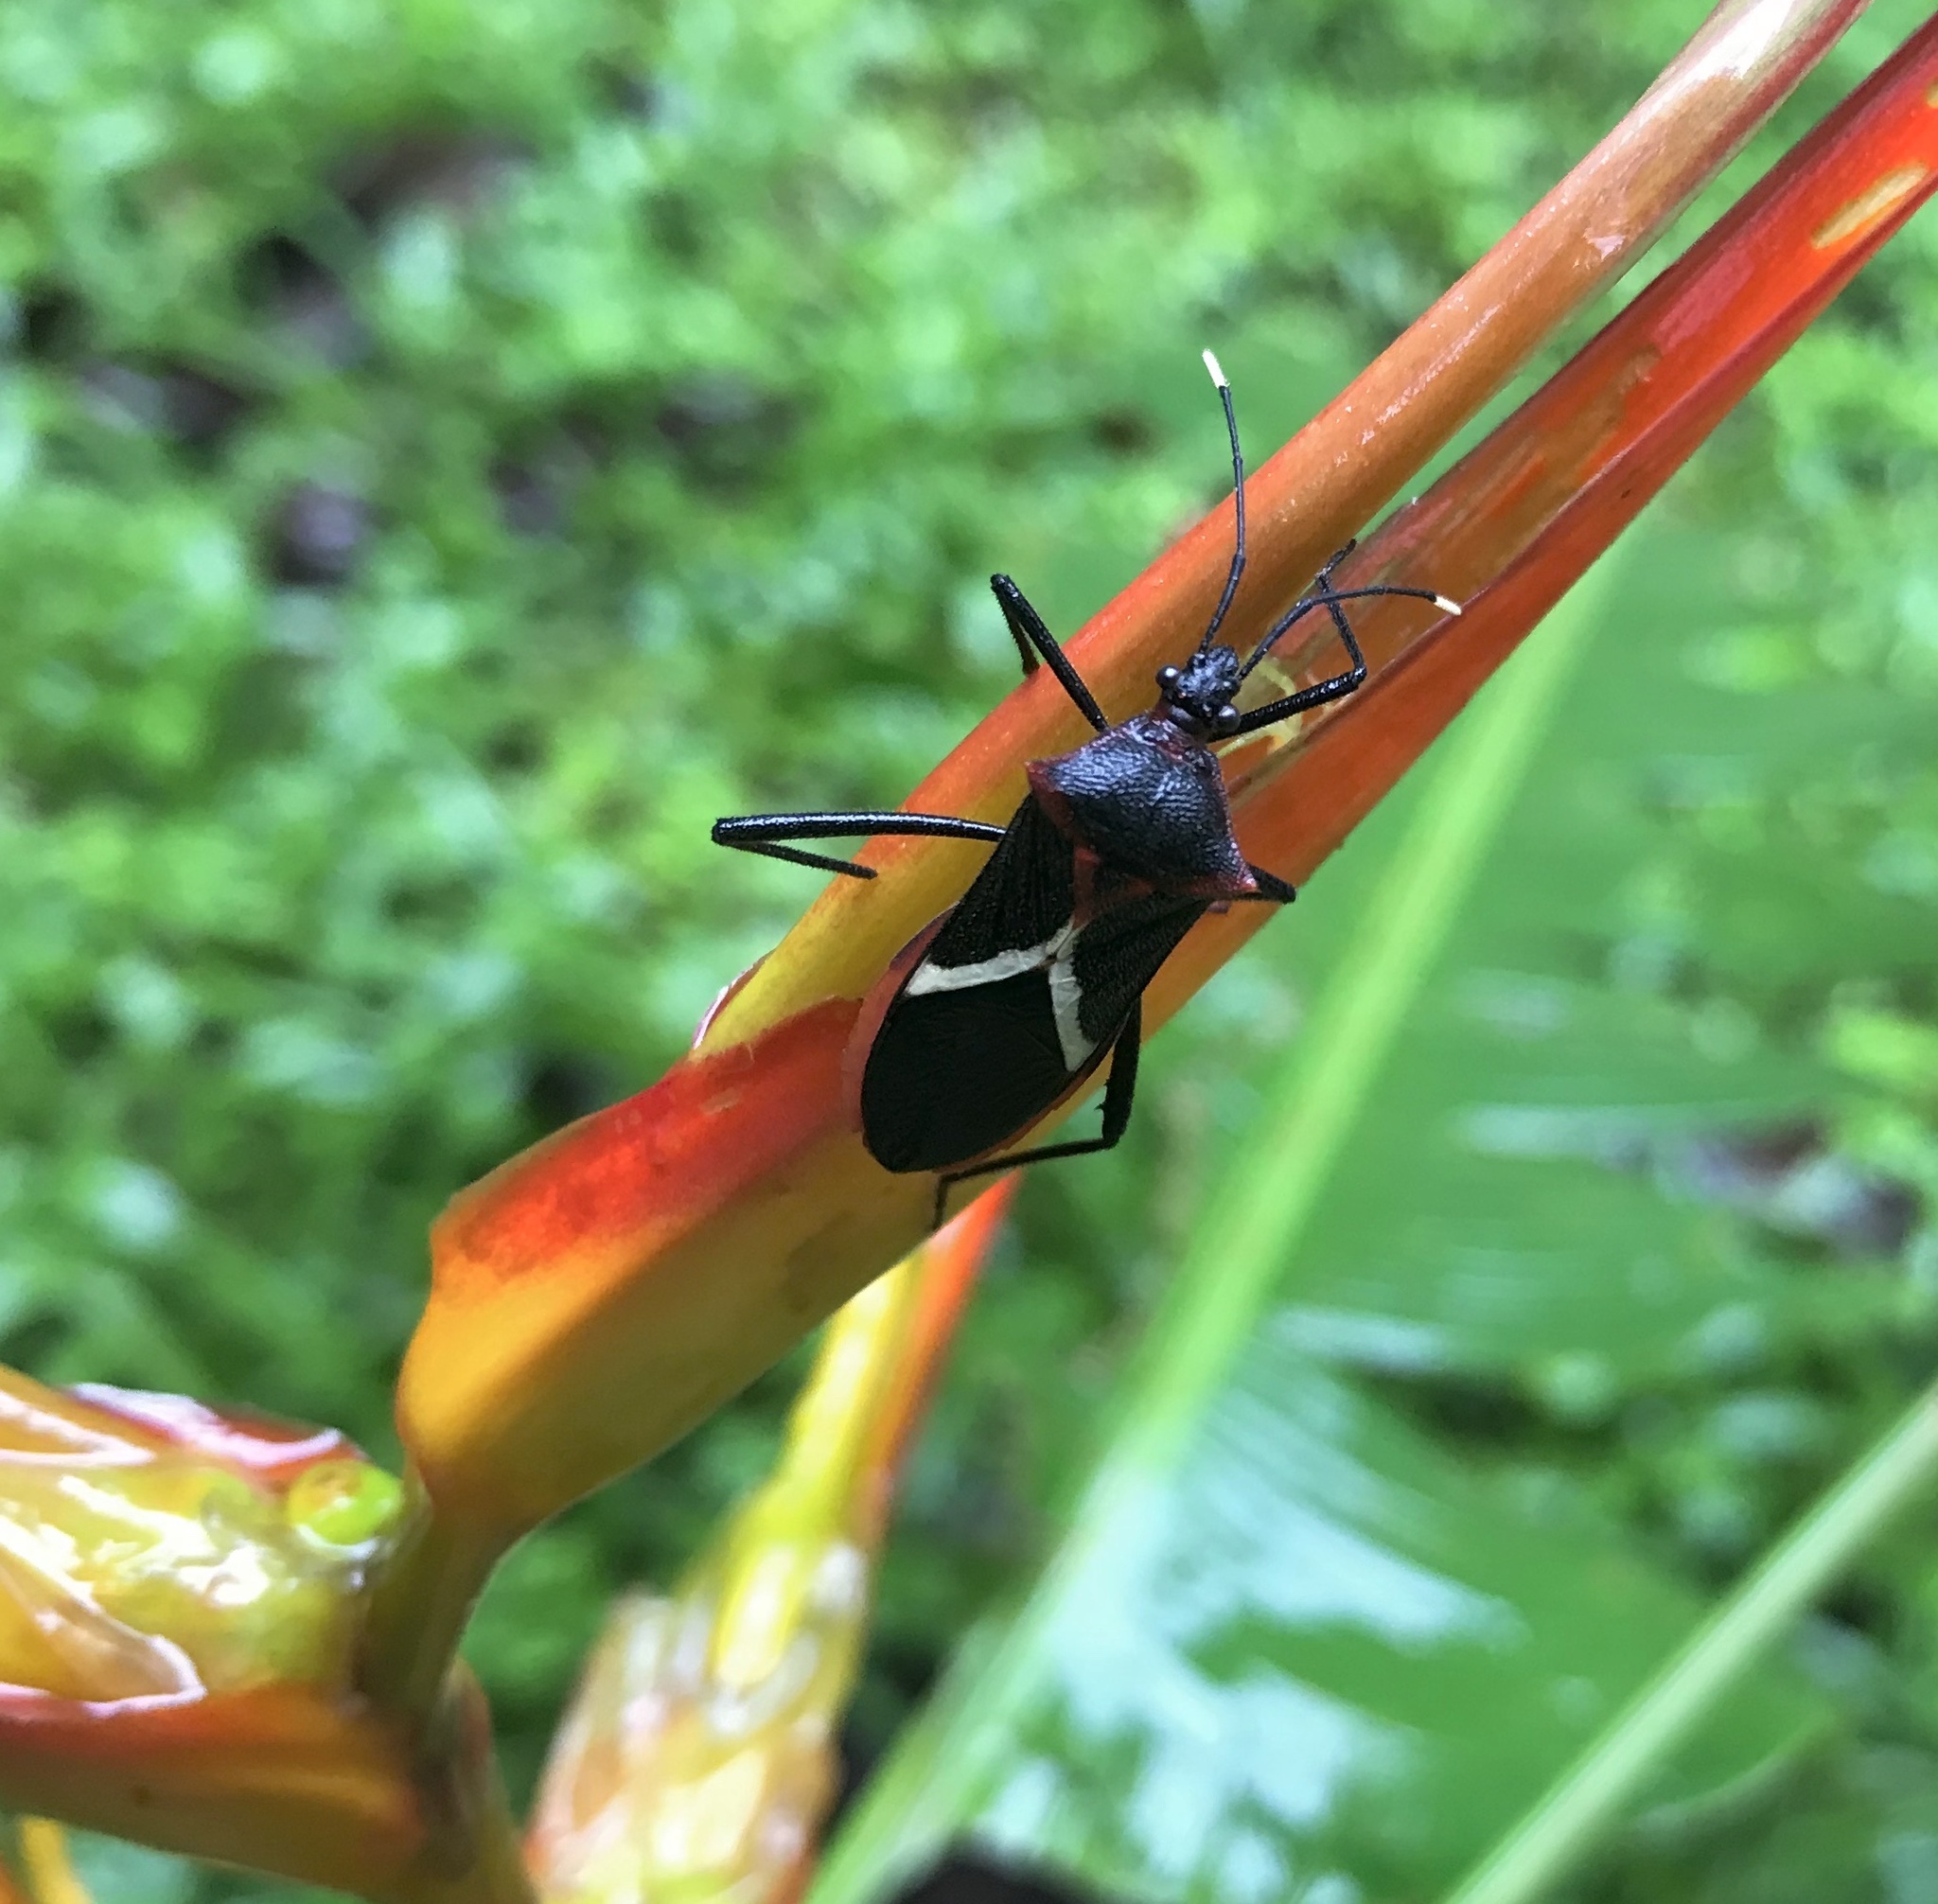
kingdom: Animalia
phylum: Arthropoda
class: Insecta
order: Hemiptera
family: Coreidae
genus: Leptoscelis
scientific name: Leptoscelis tricolor
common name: Heliconia bug
